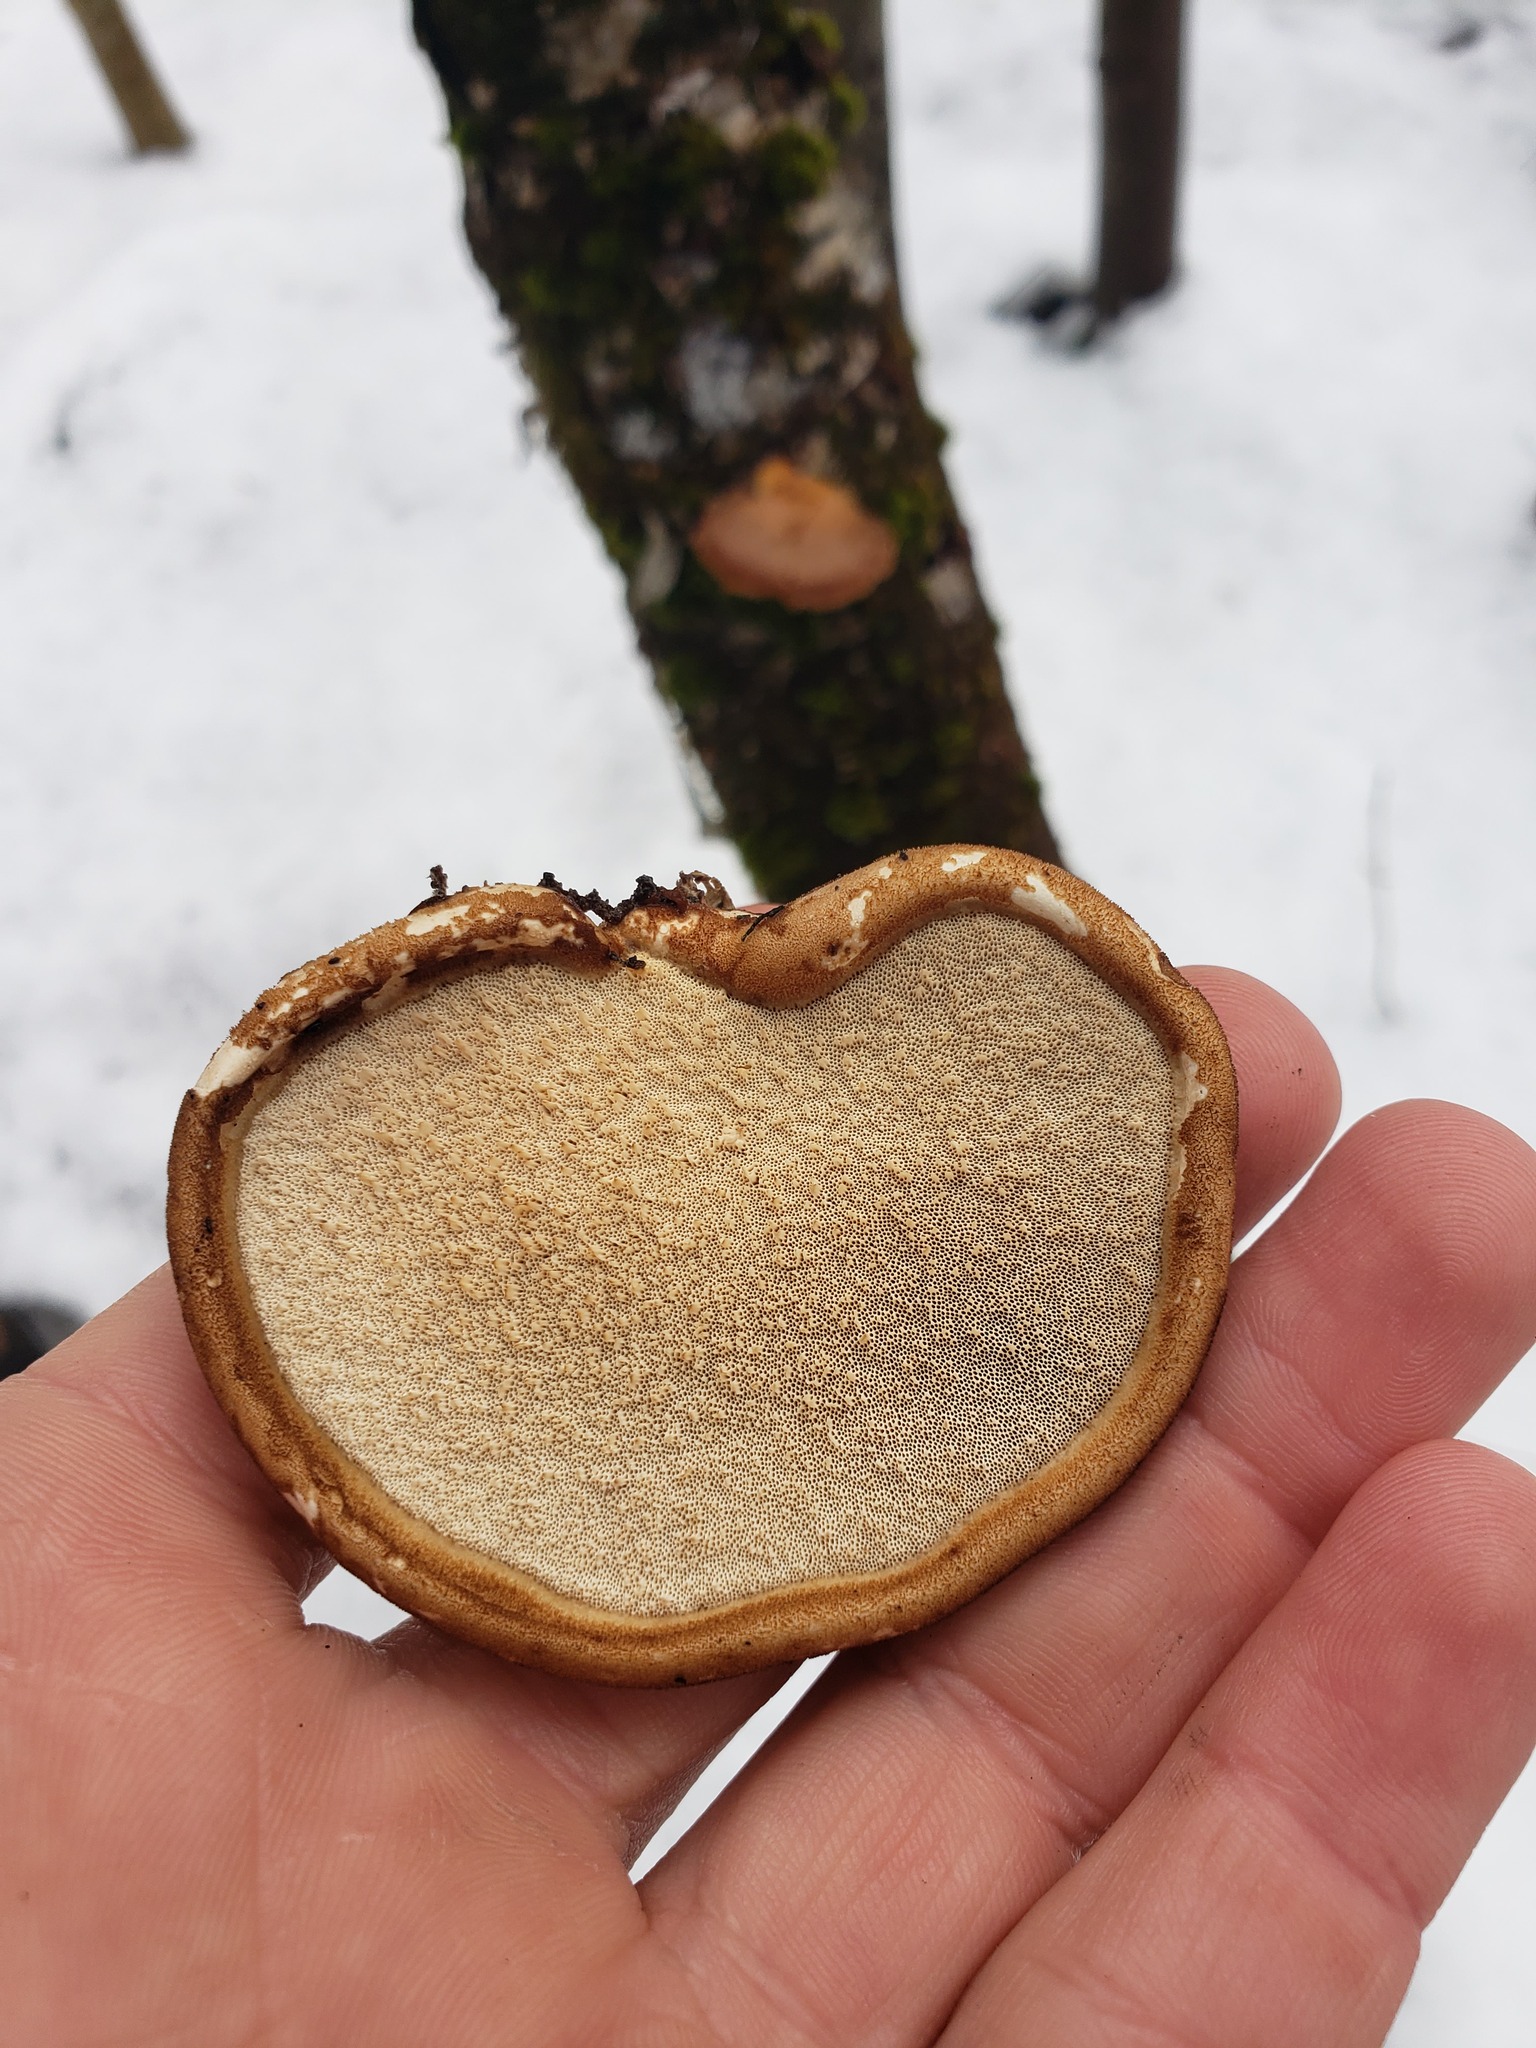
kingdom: Fungi
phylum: Basidiomycota
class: Agaricomycetes
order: Polyporales
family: Fomitopsidaceae
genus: Fomitopsis
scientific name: Fomitopsis betulina
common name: Birch polypore
